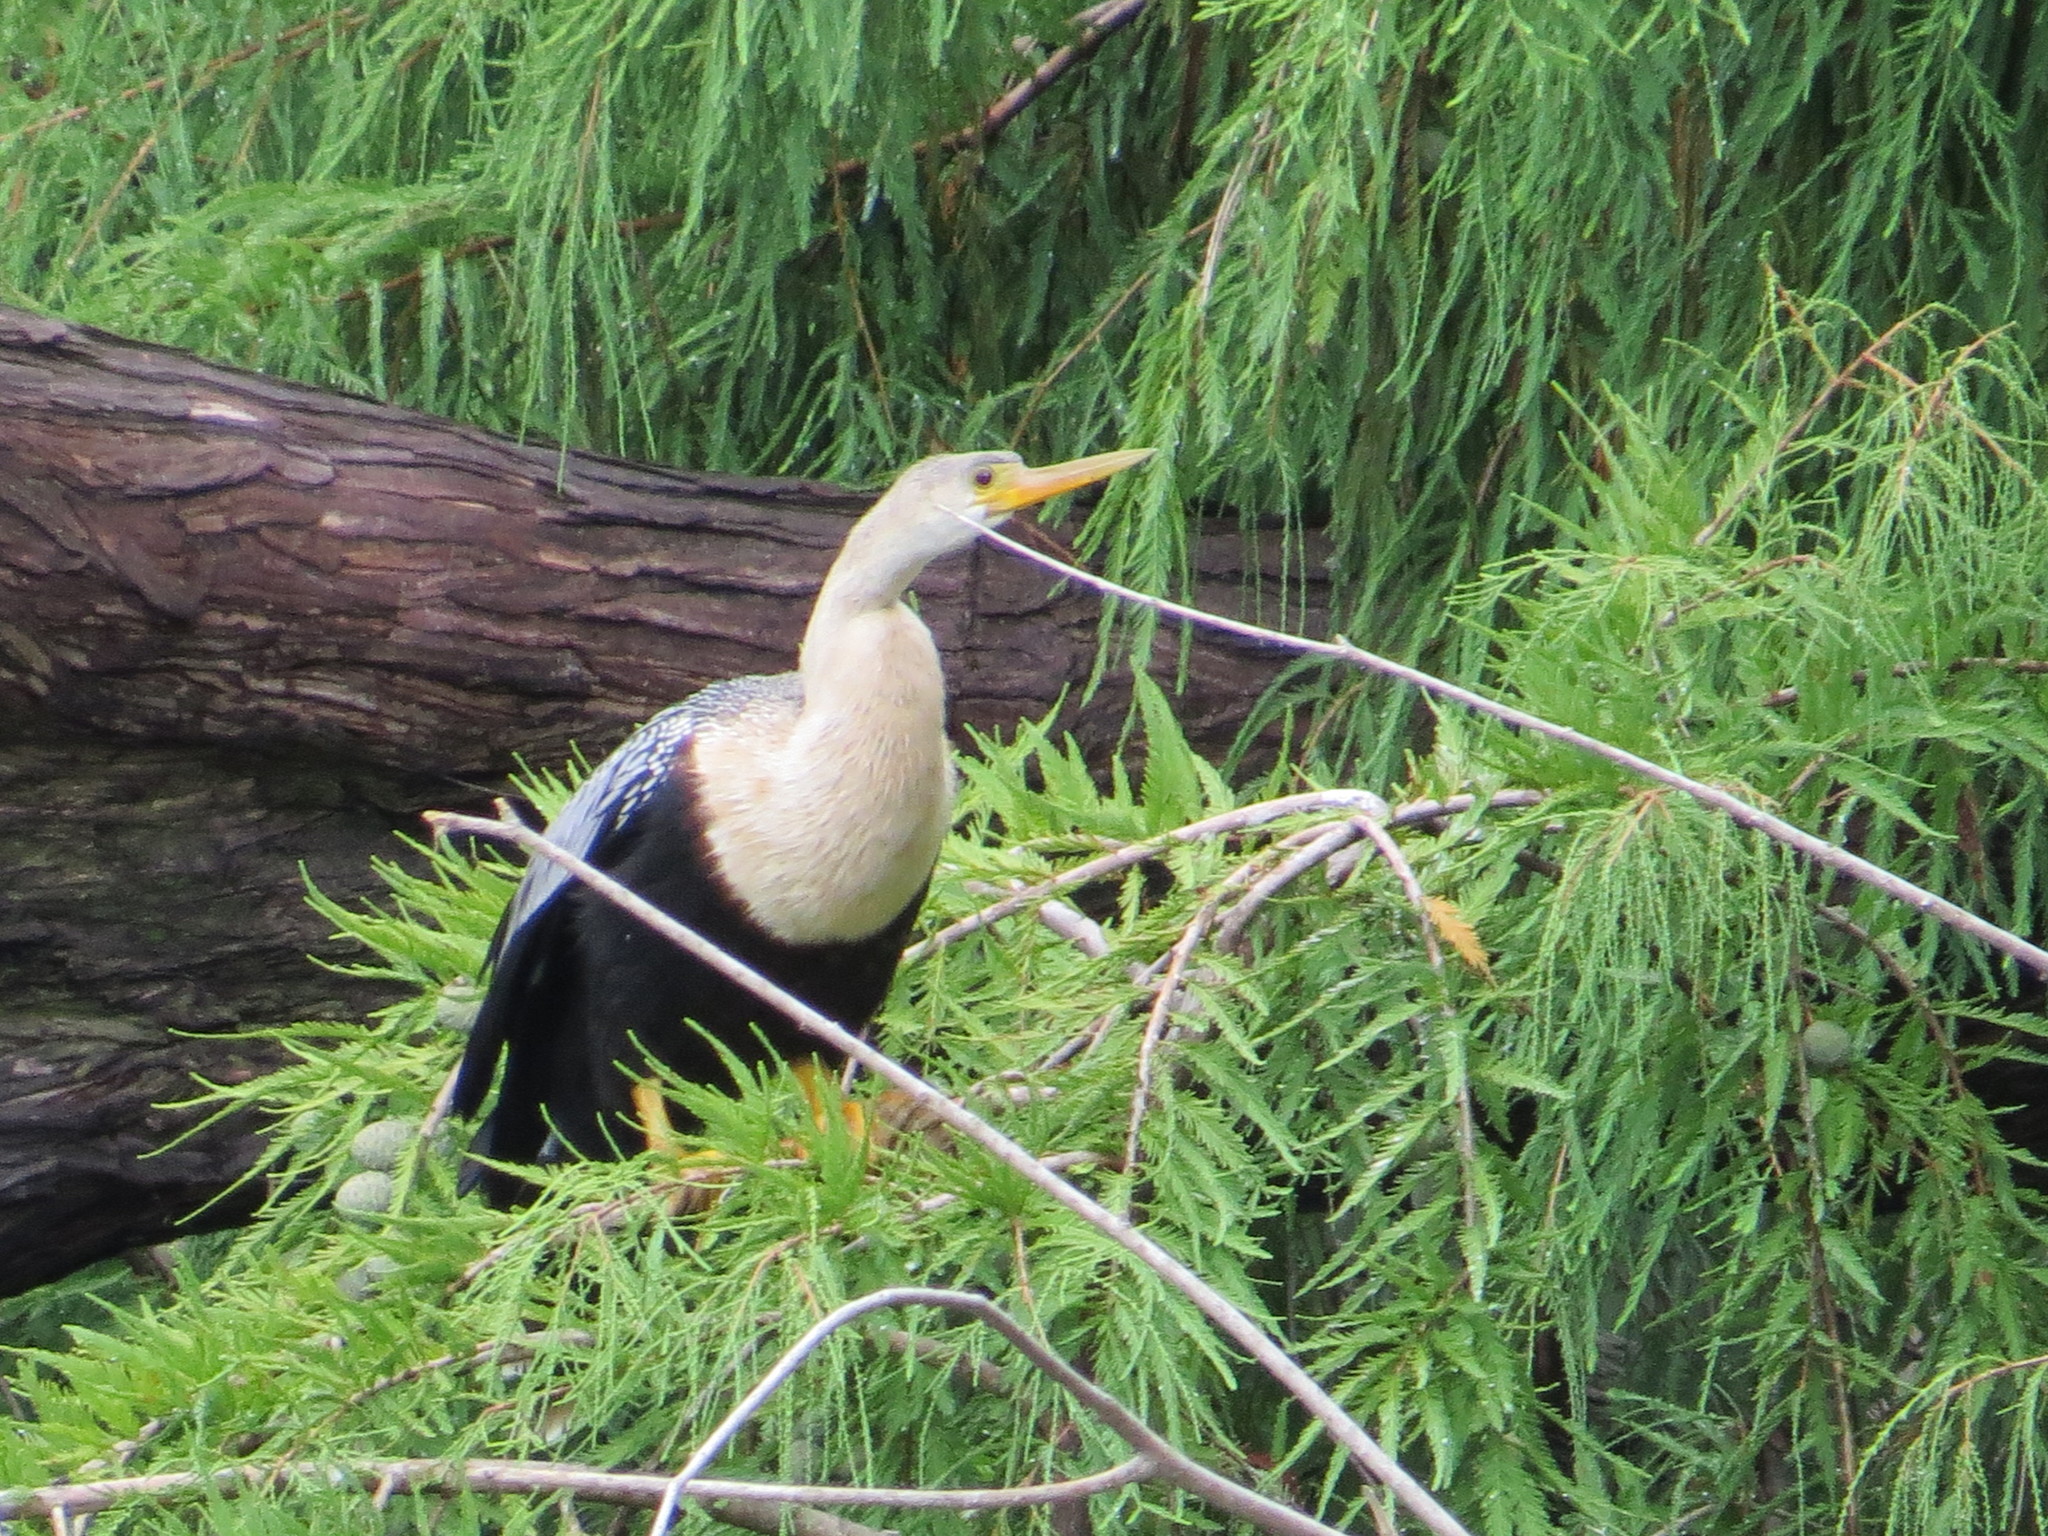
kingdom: Animalia
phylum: Chordata
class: Aves
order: Suliformes
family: Anhingidae
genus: Anhinga
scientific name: Anhinga anhinga
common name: Anhinga
